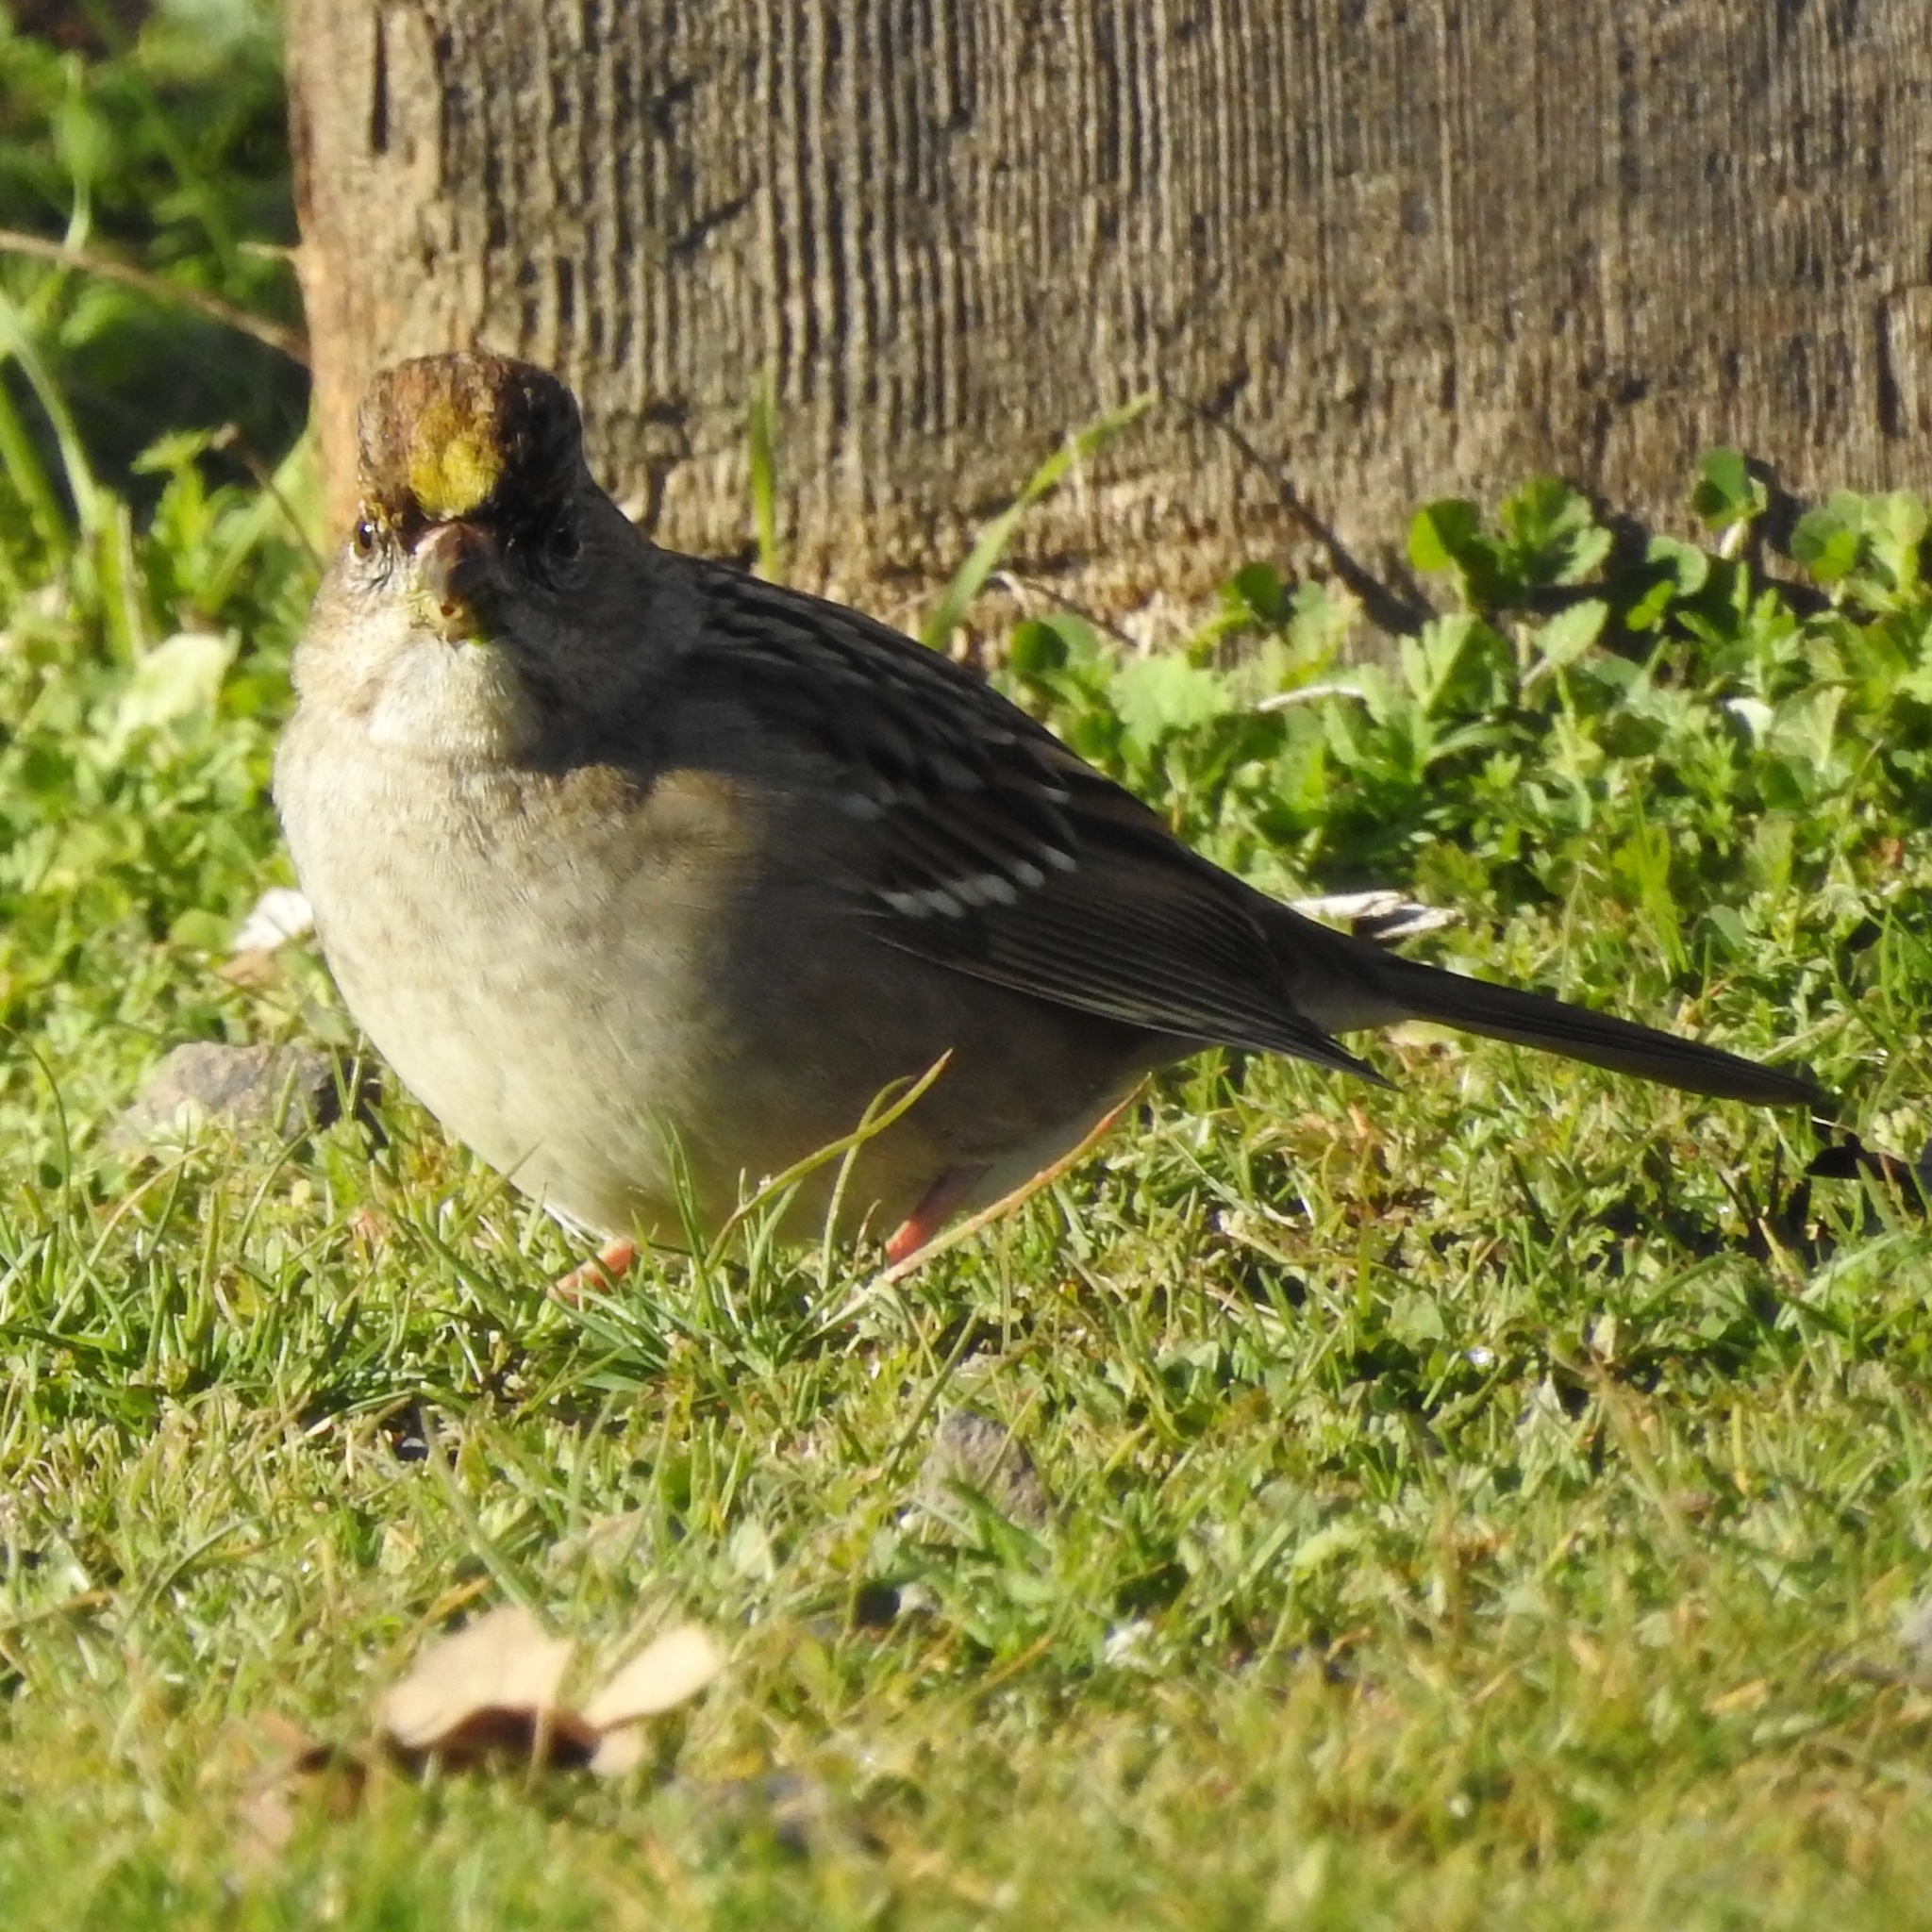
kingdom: Animalia
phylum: Chordata
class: Aves
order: Passeriformes
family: Passerellidae
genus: Zonotrichia
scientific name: Zonotrichia atricapilla
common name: Golden-crowned sparrow
